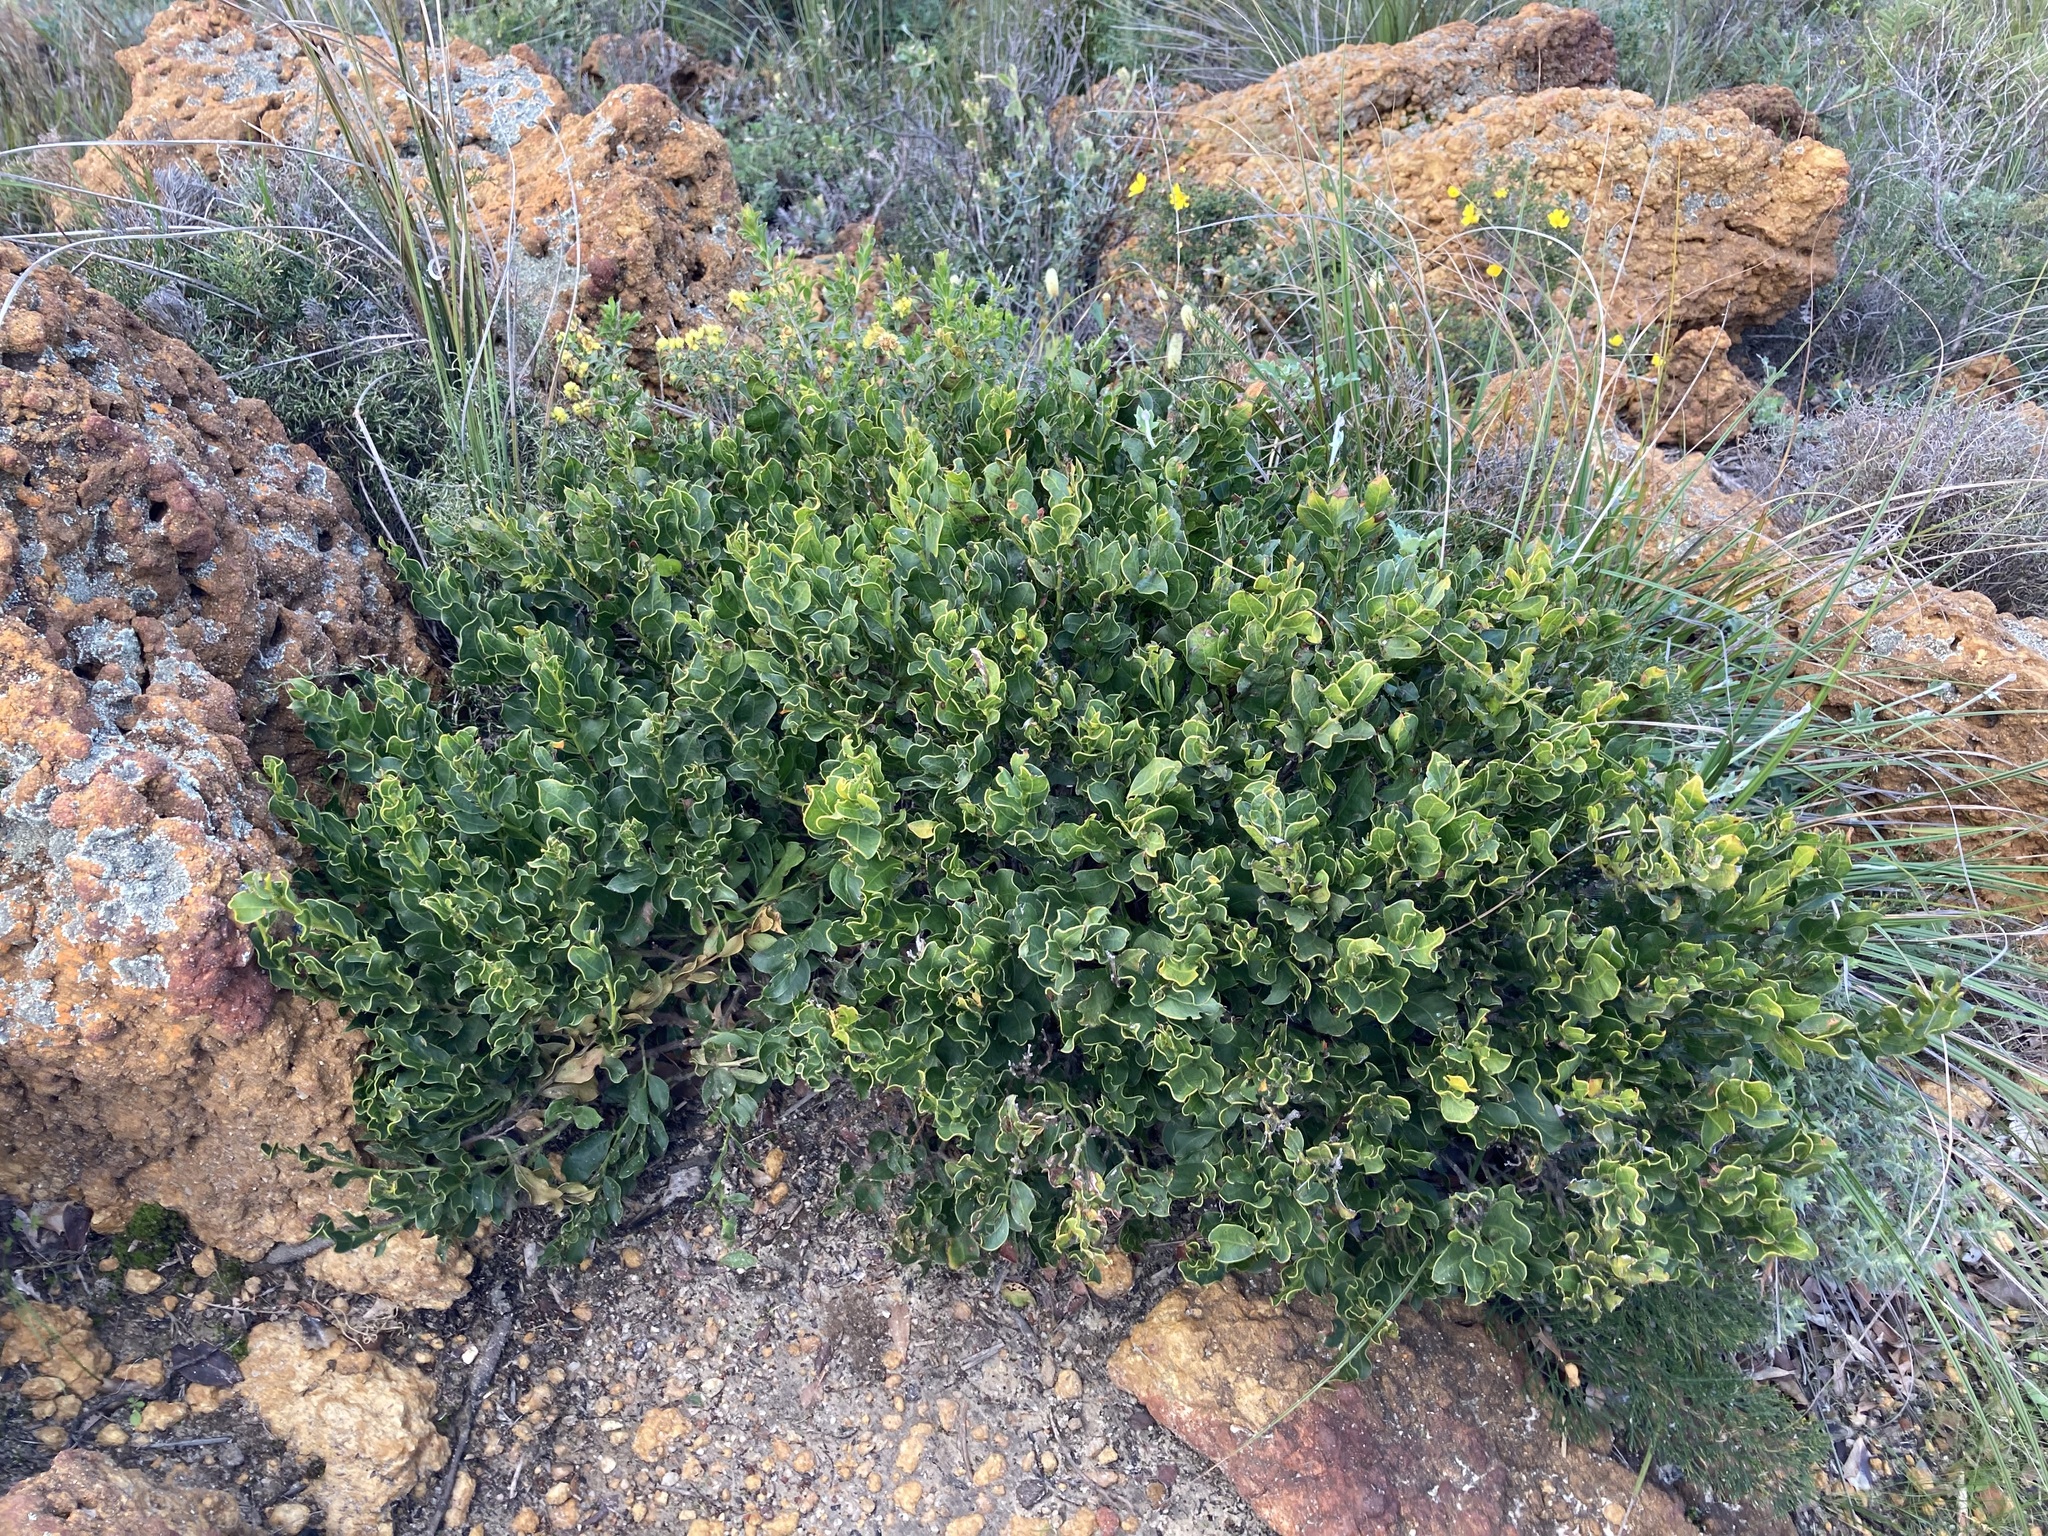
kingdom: Plantae
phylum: Tracheophyta
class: Magnoliopsida
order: Fabales
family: Fabaceae
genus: Acacia
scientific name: Acacia obovata
